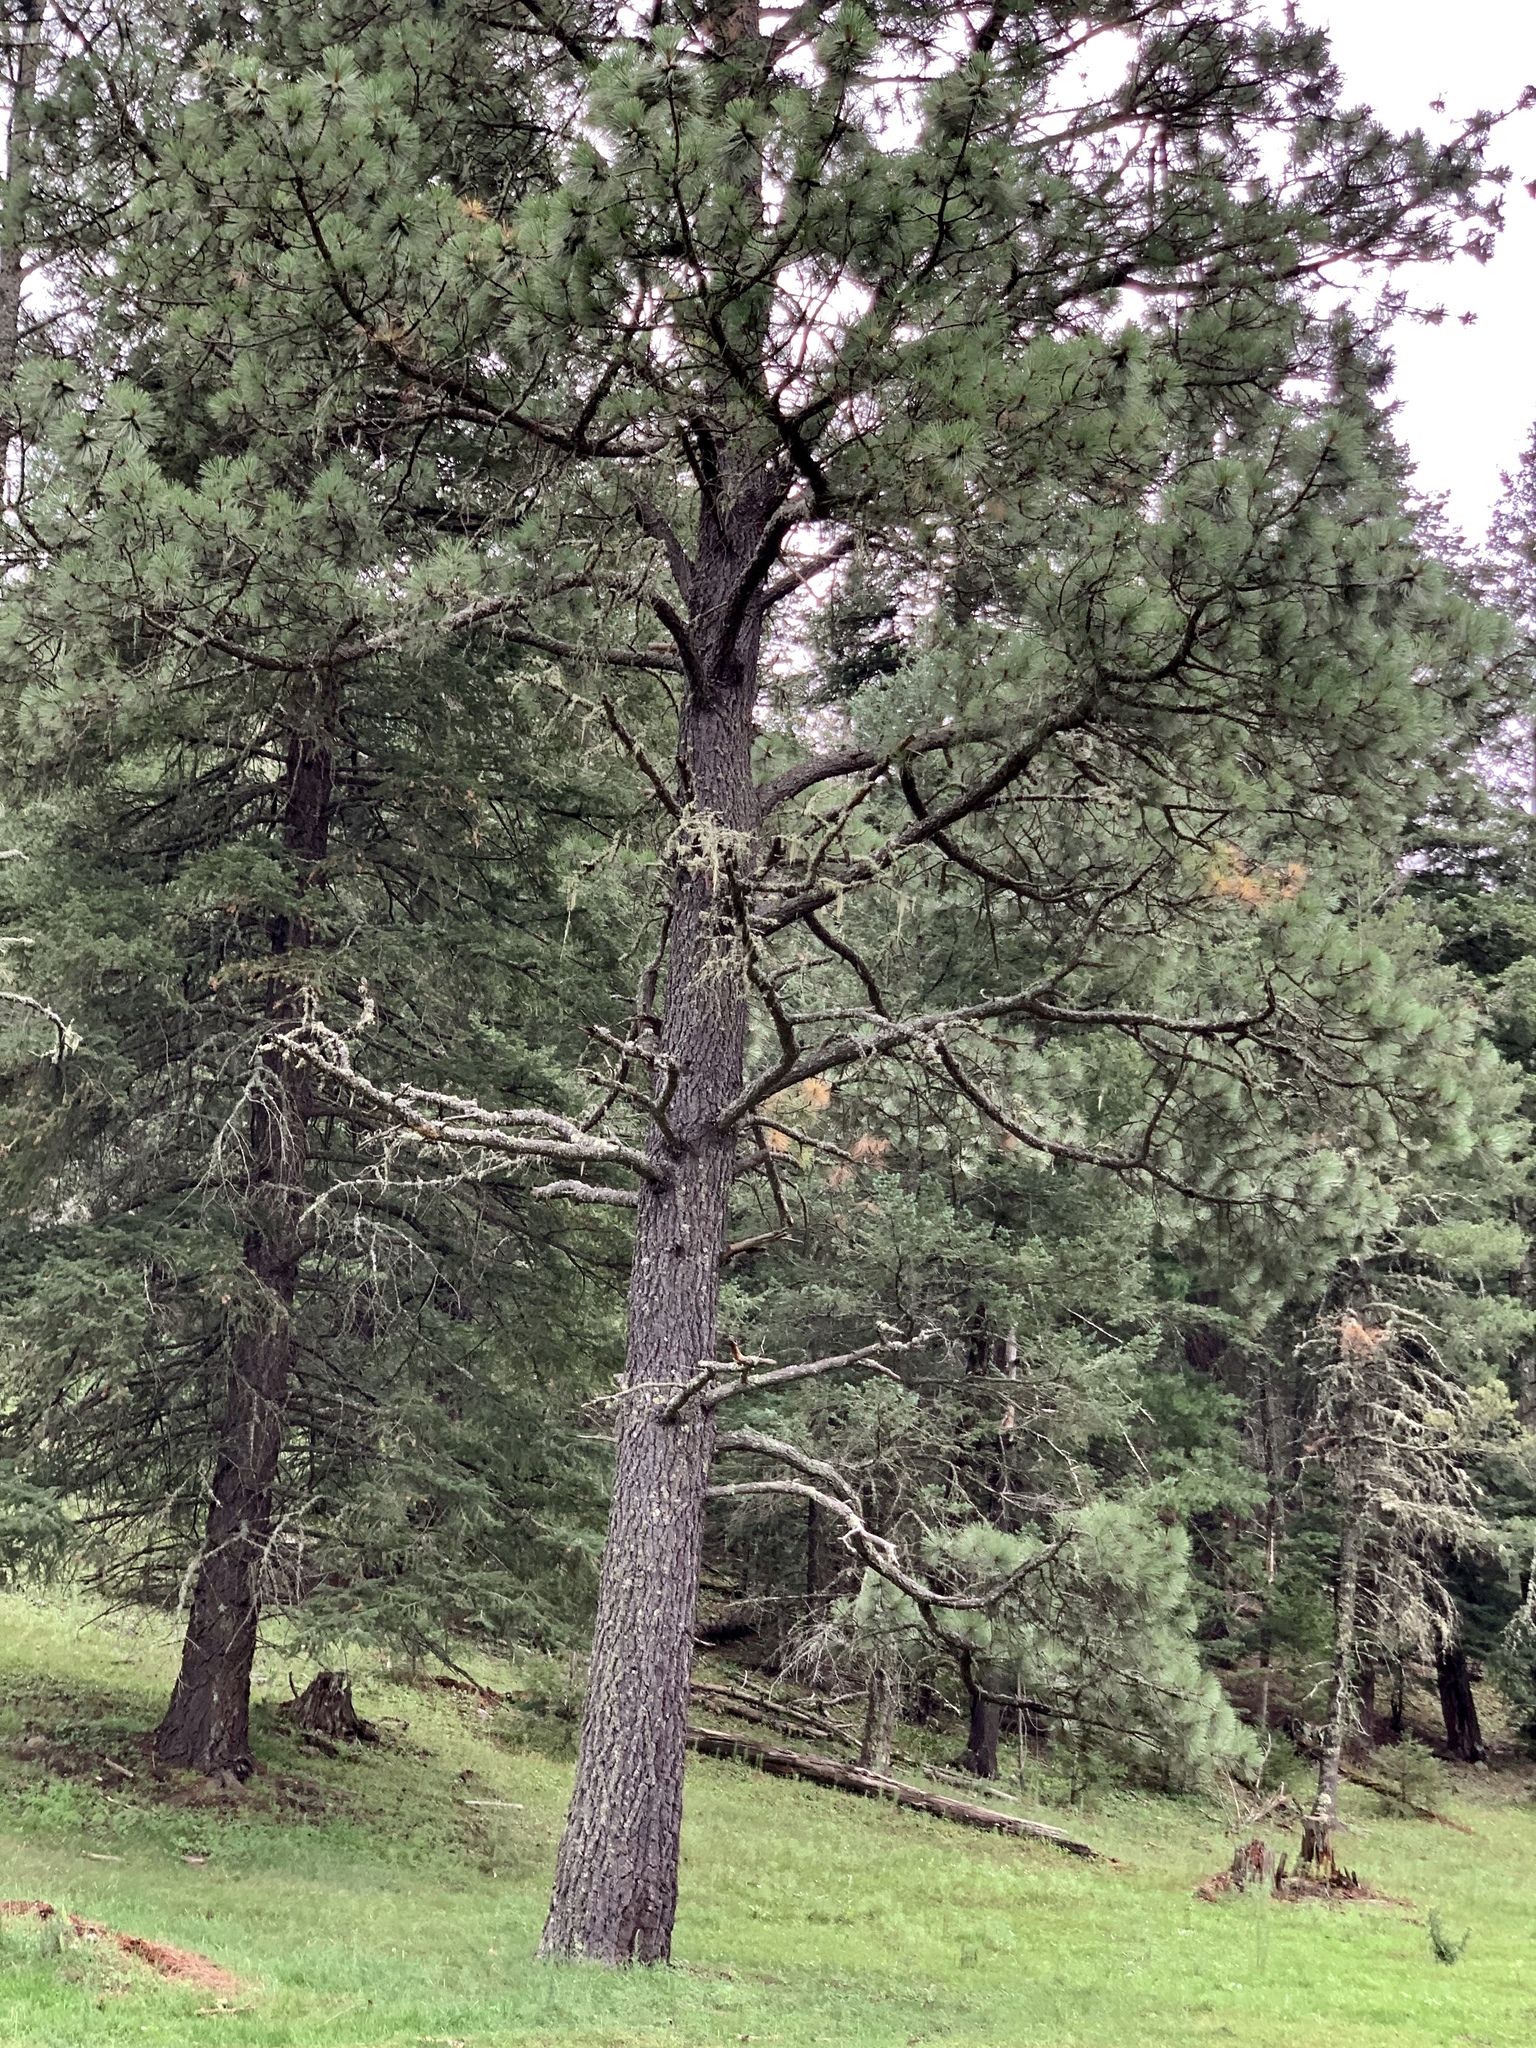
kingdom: Plantae
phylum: Tracheophyta
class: Pinopsida
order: Pinales
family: Pinaceae
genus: Pinus
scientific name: Pinus ponderosa
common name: Western yellow-pine
